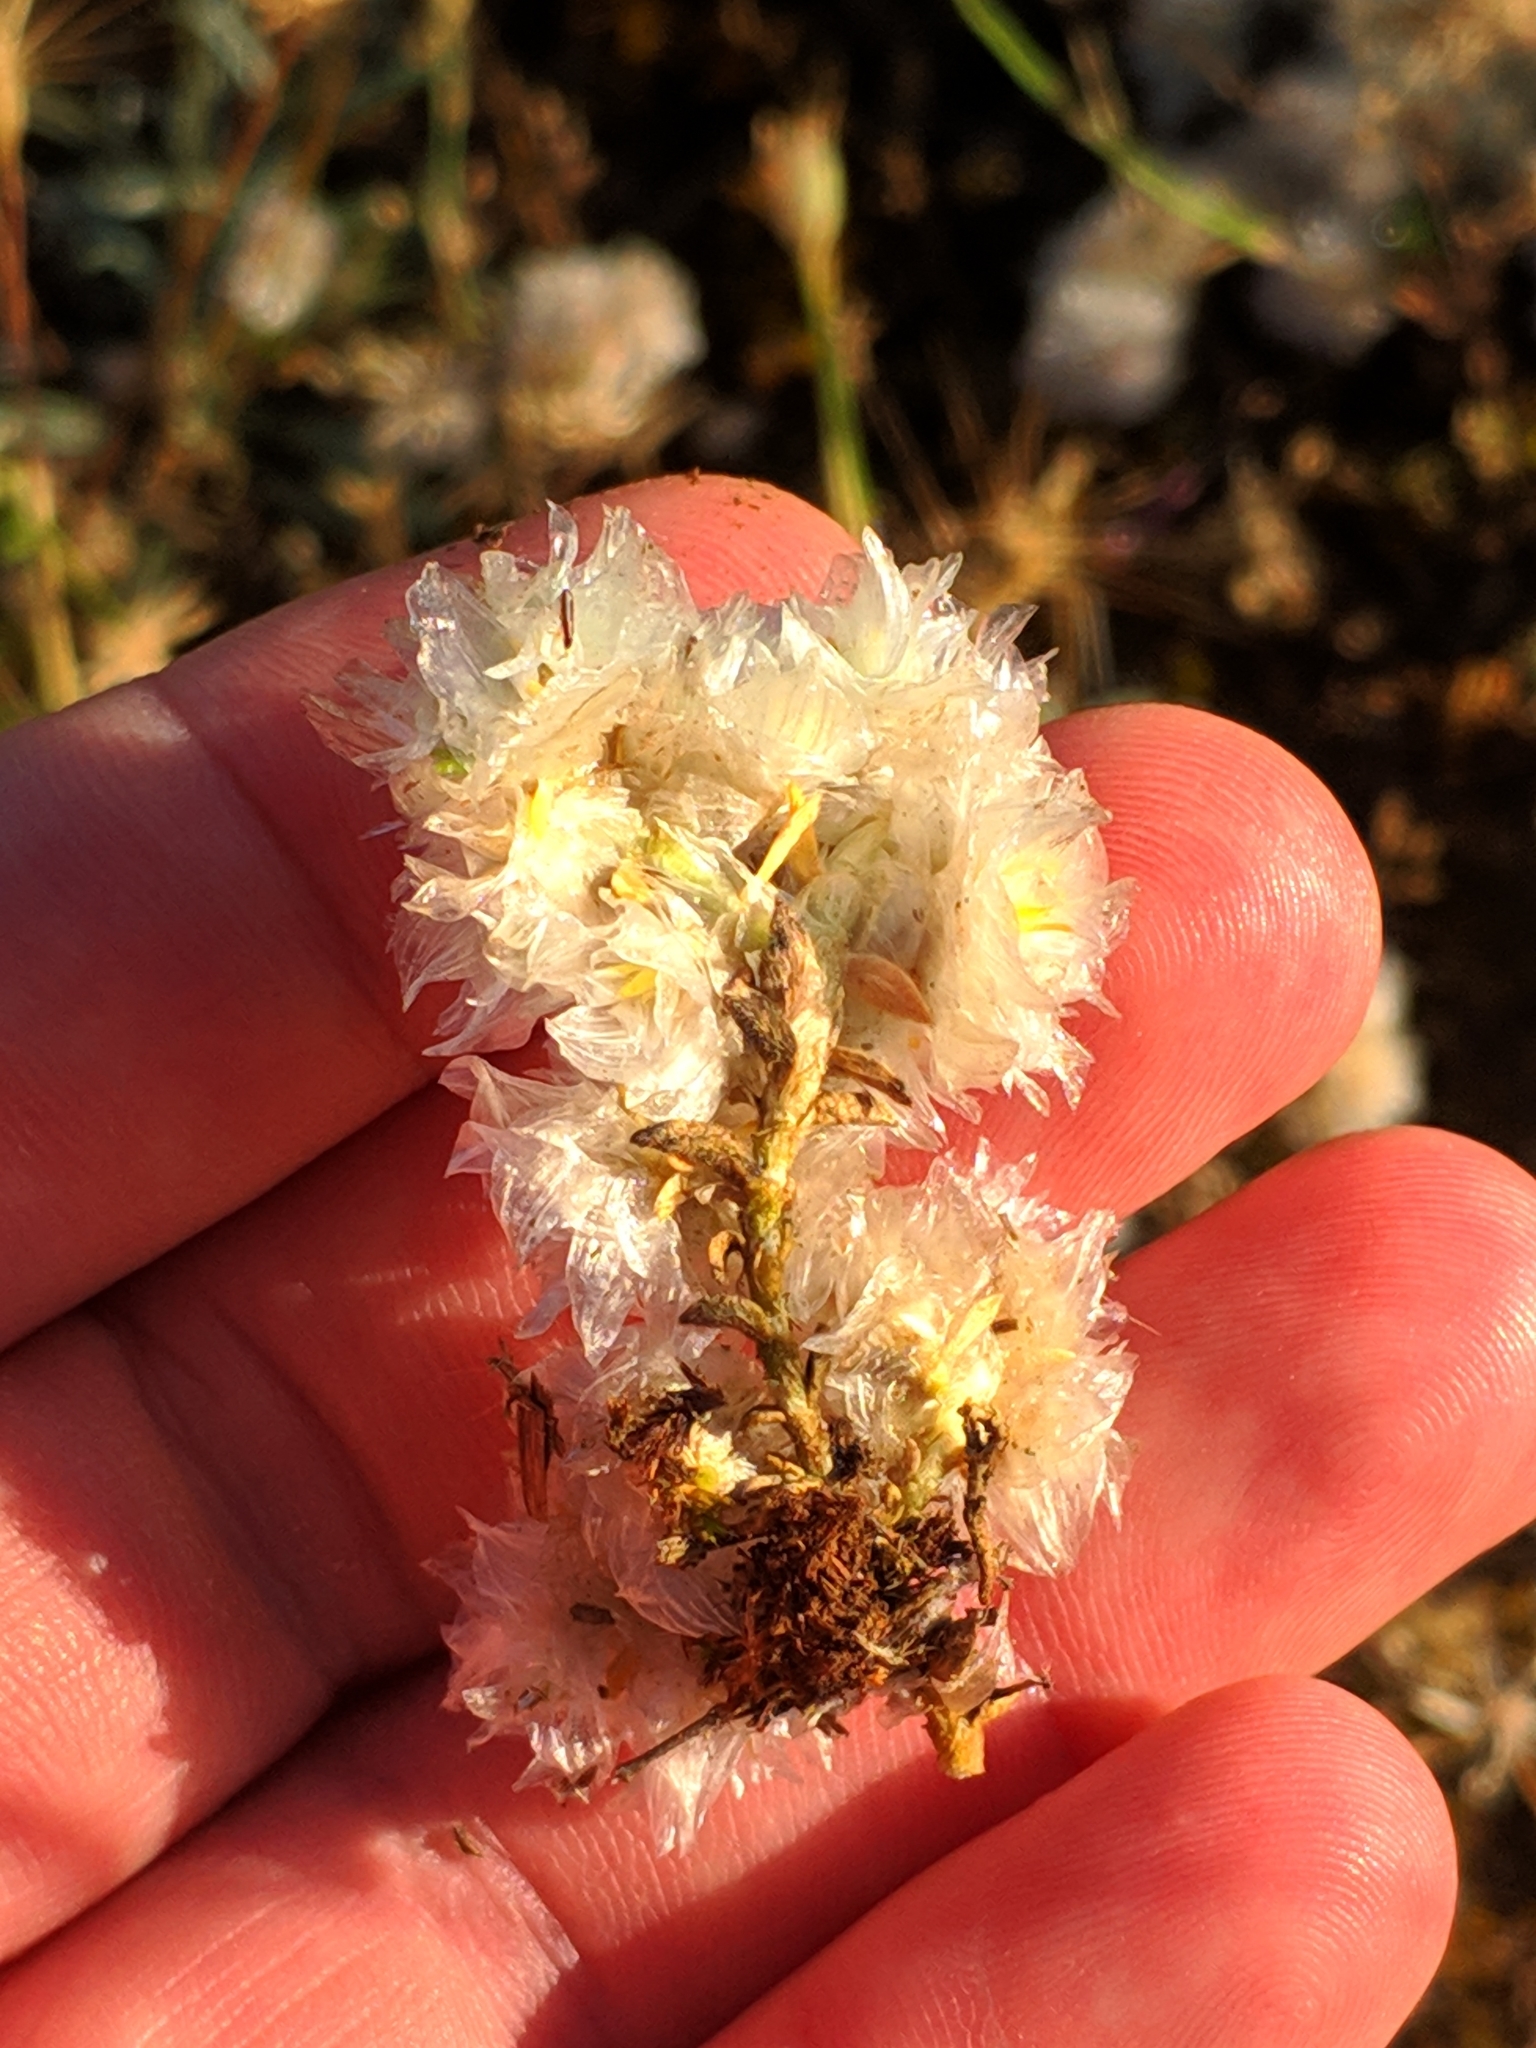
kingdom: Plantae
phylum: Tracheophyta
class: Magnoliopsida
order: Caryophyllales
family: Caryophyllaceae
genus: Paronychia
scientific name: Paronychia argentea
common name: Silver nailroot
